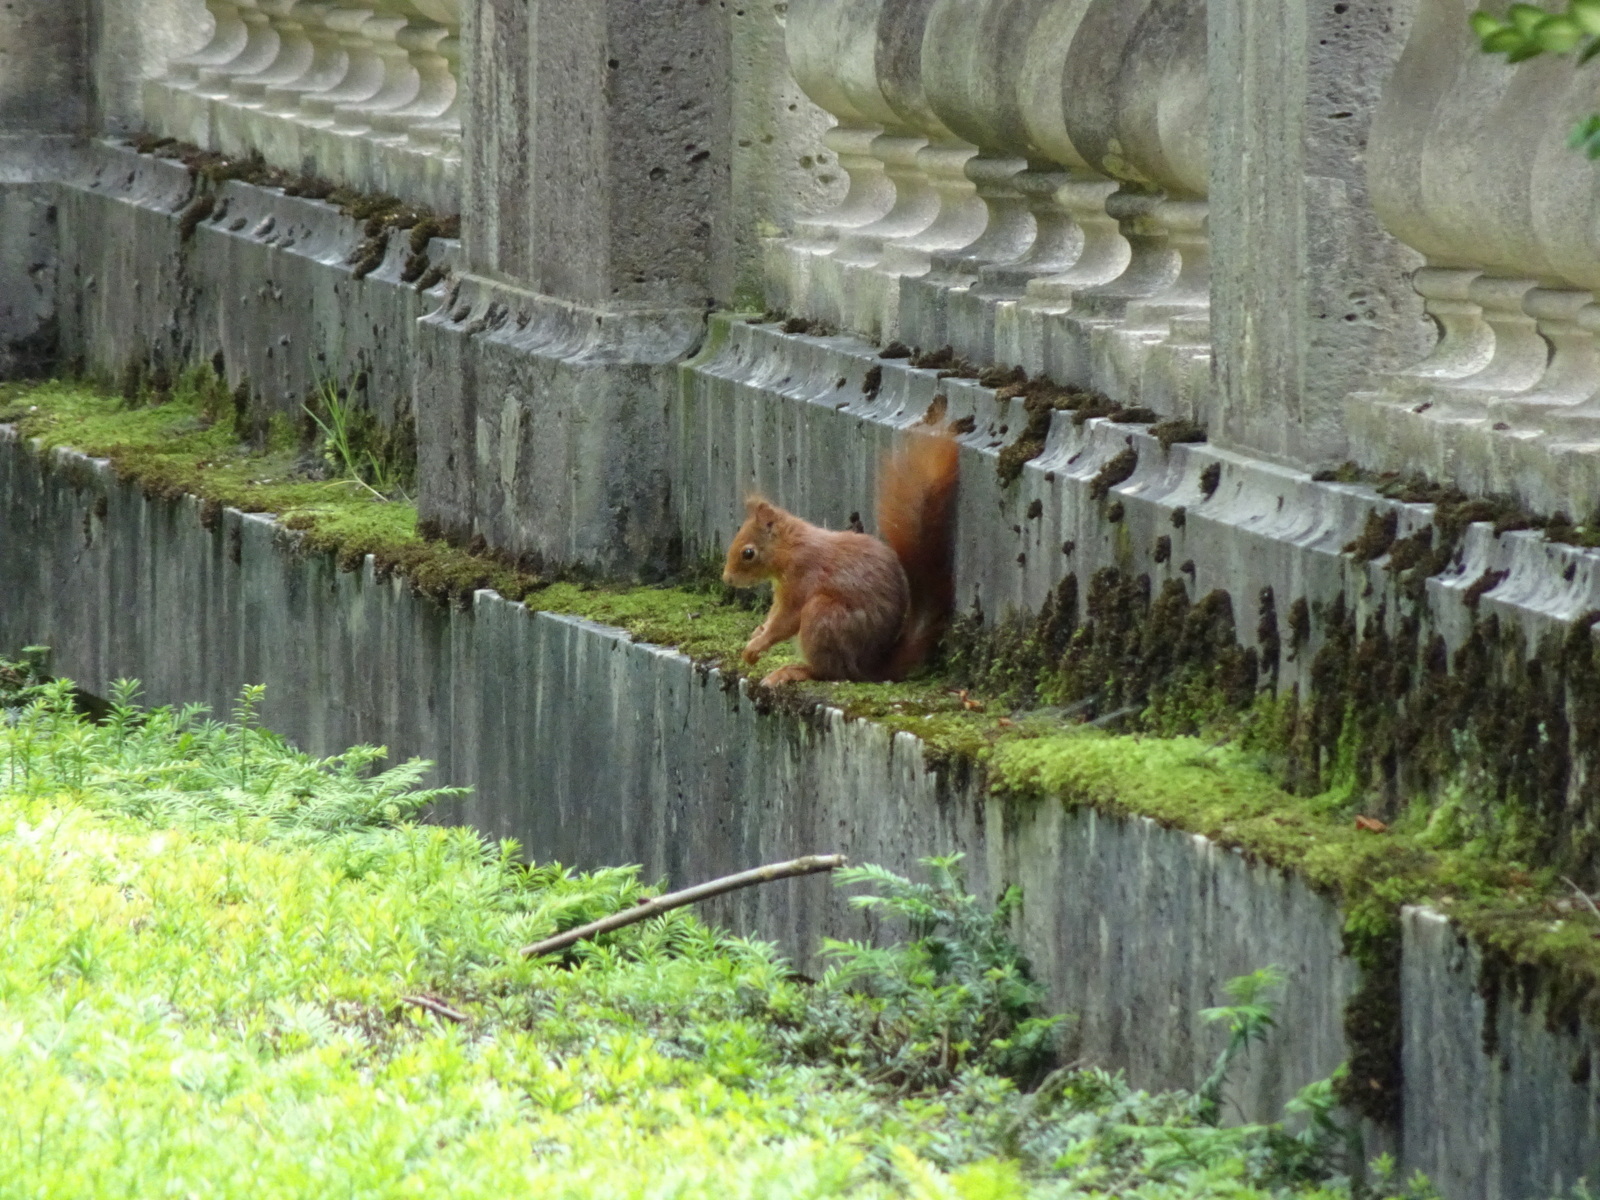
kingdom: Animalia
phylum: Chordata
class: Mammalia
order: Rodentia
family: Sciuridae
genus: Sciurus
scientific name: Sciurus vulgaris
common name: Eurasian red squirrel
